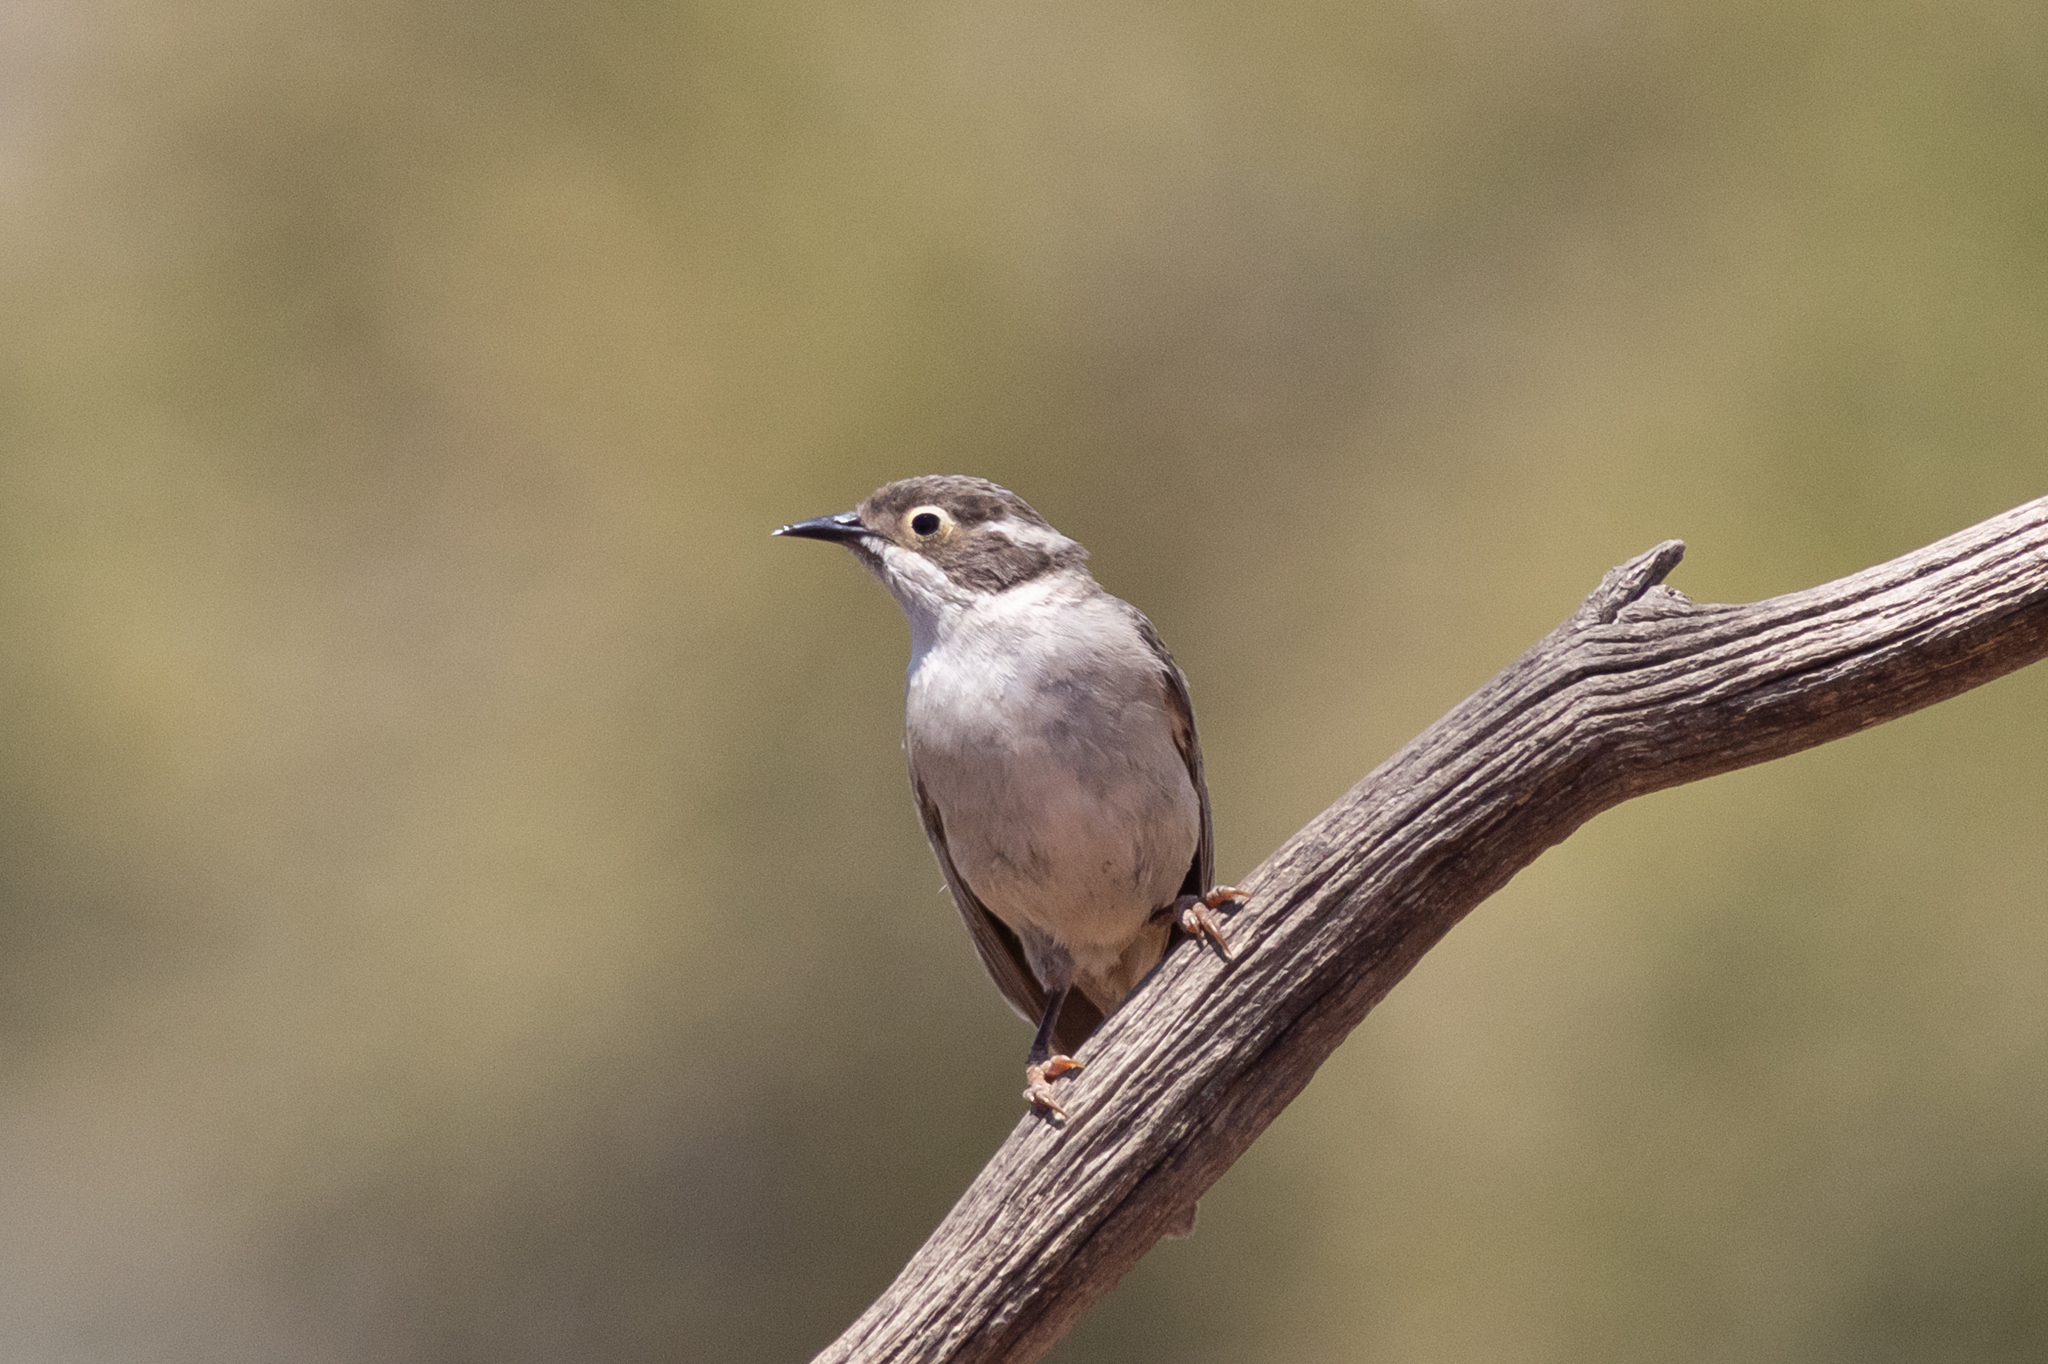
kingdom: Animalia
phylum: Chordata
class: Aves
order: Passeriformes
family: Meliphagidae
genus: Melithreptus
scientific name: Melithreptus brevirostris
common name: Brown-headed honeyeater
